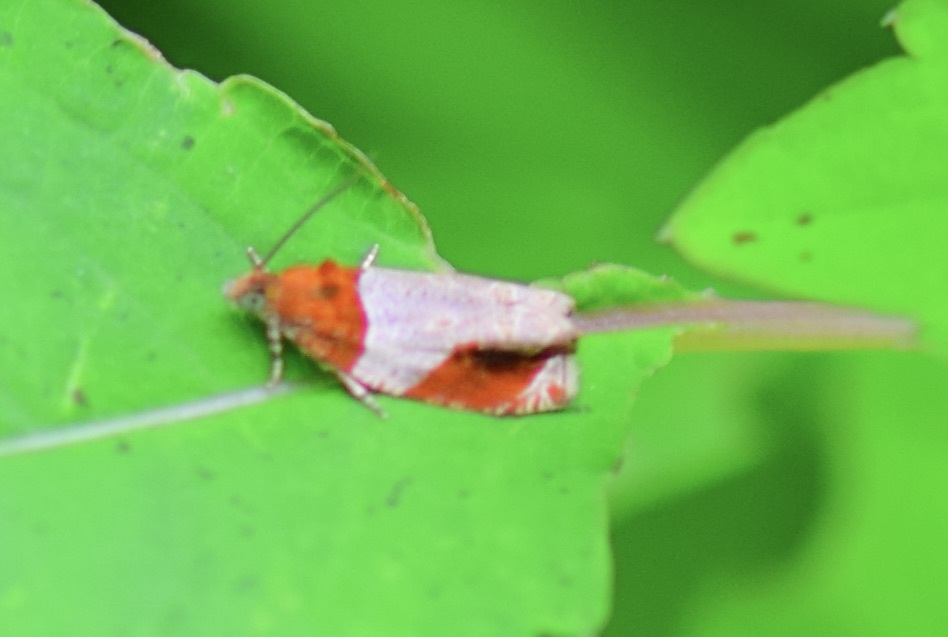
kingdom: Animalia
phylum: Arthropoda
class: Insecta
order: Lepidoptera
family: Tortricidae
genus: Olethreutes
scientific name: Olethreutes ferriferana
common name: Hydrangea leaftier moth
